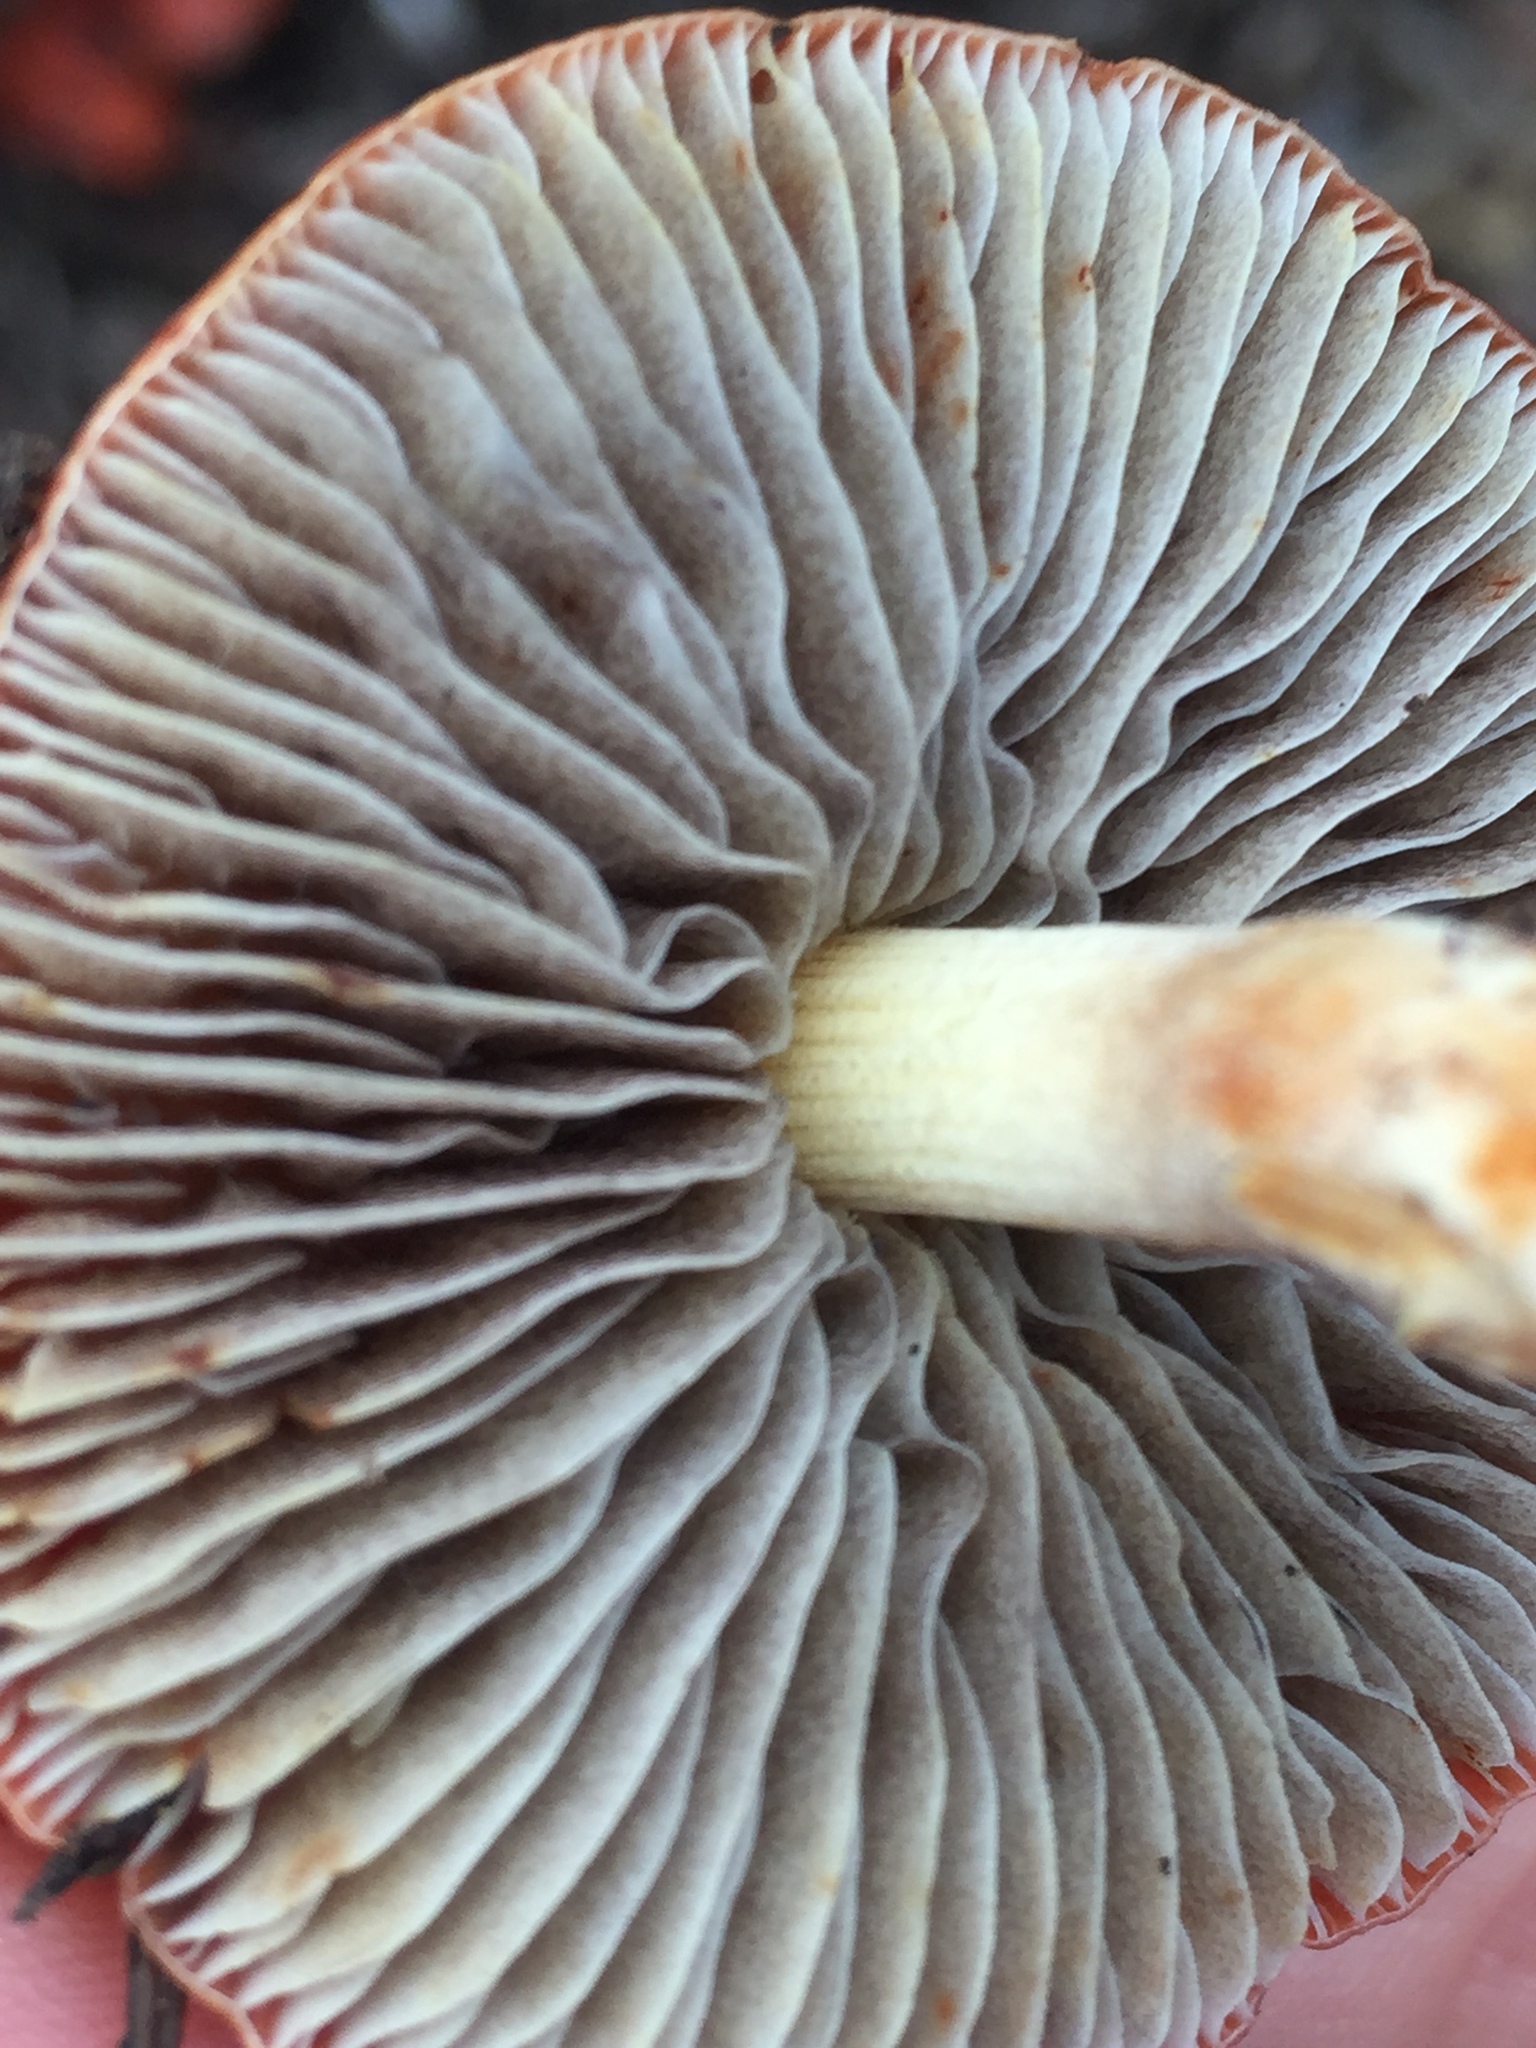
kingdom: Fungi
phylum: Basidiomycota
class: Agaricomycetes
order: Agaricales
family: Strophariaceae
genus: Leratiomyces
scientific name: Leratiomyces ceres
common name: Redlead roundhead
